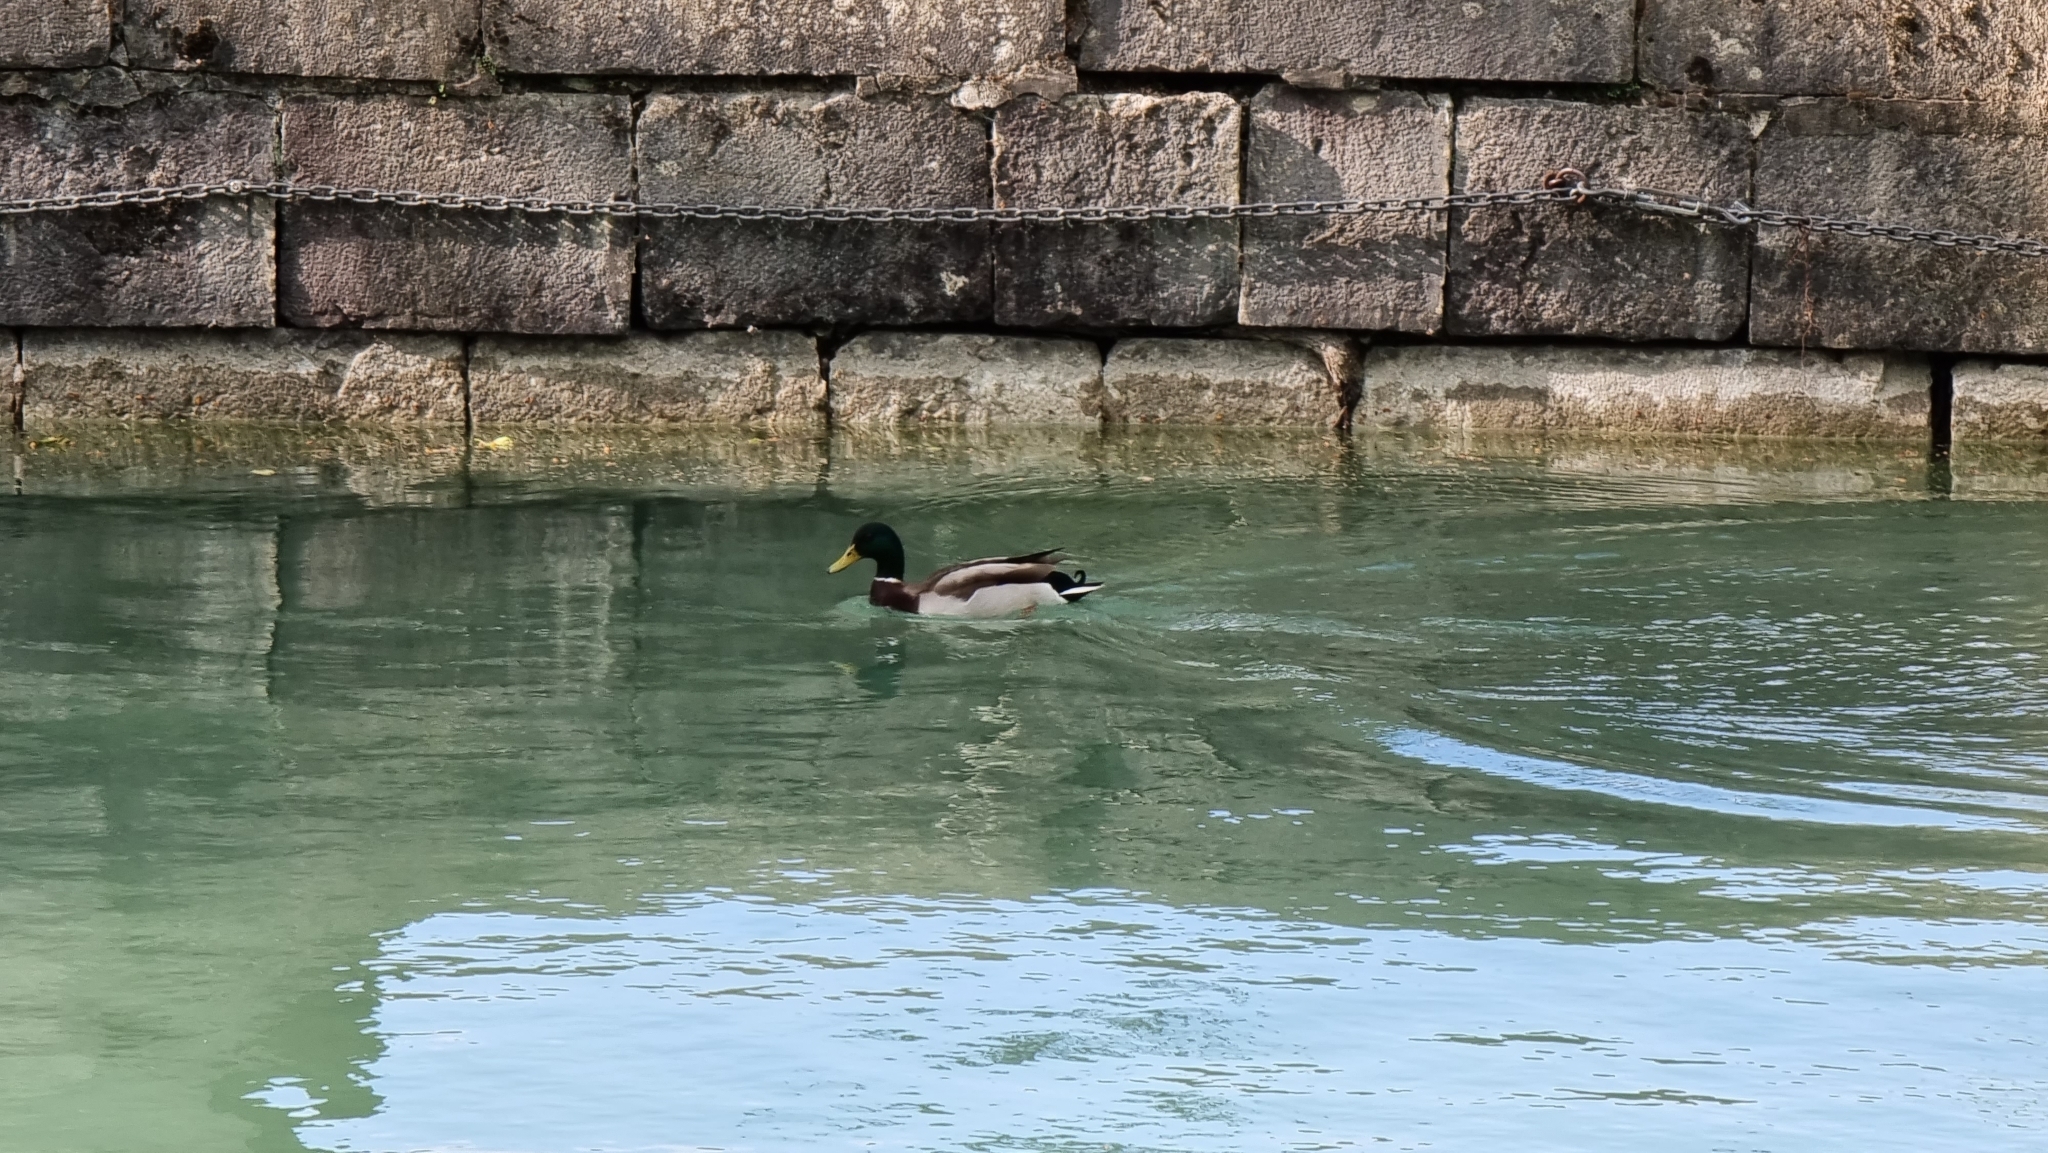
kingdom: Animalia
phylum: Chordata
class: Aves
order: Anseriformes
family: Anatidae
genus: Anas
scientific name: Anas platyrhynchos
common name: Mallard
